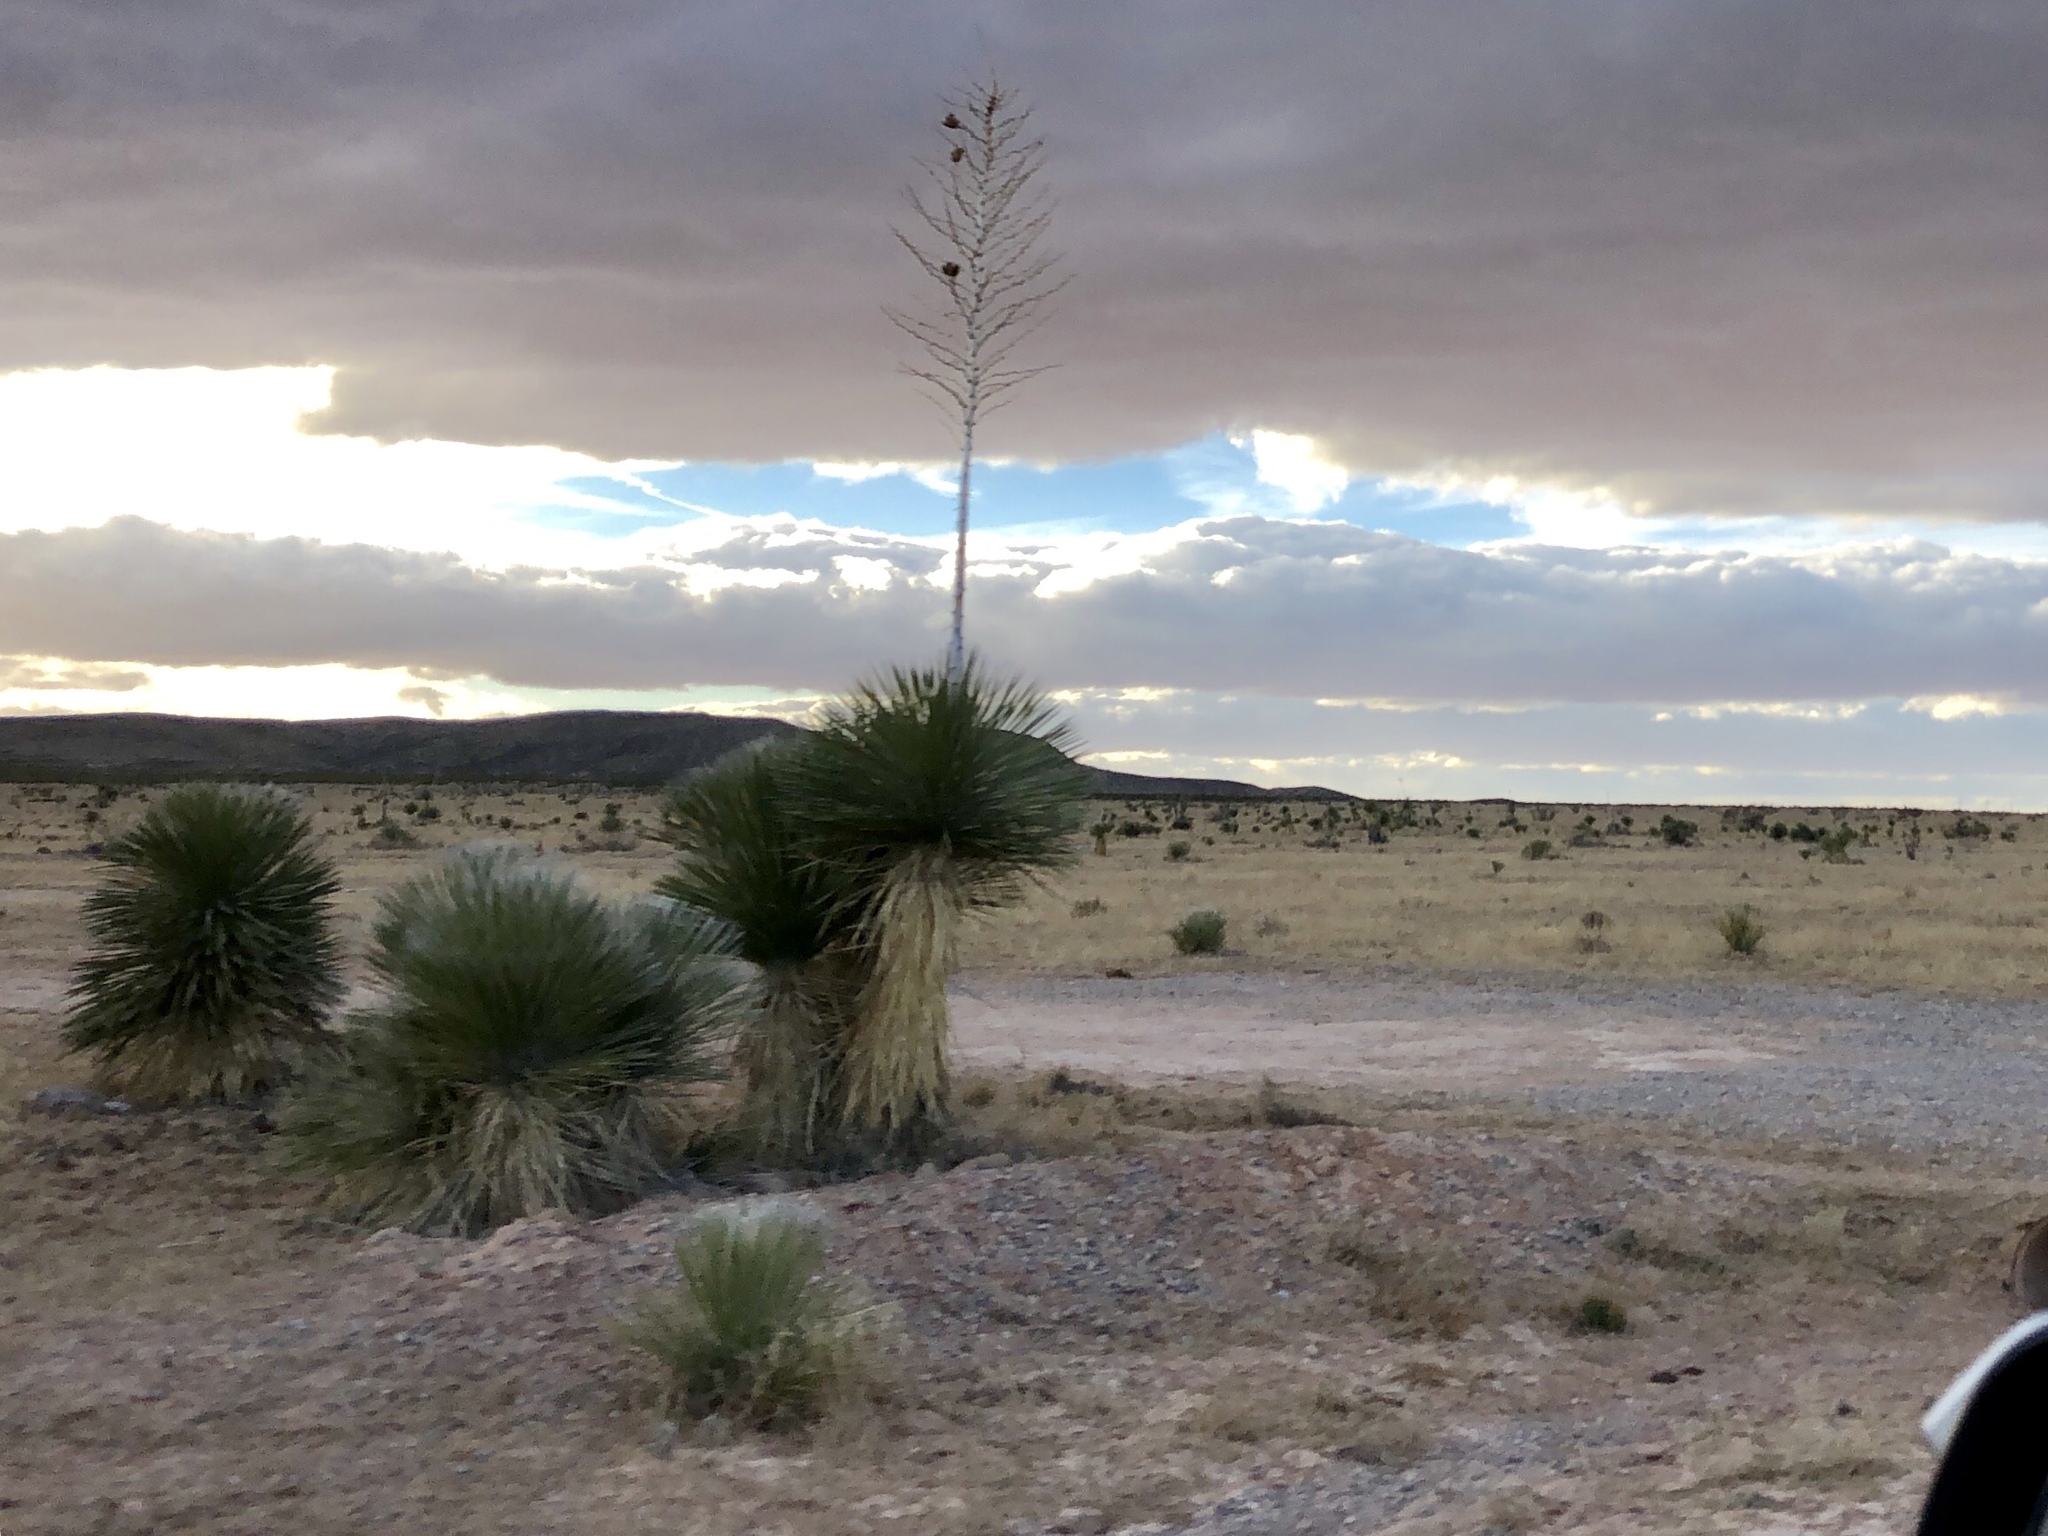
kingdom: Plantae
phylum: Tracheophyta
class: Liliopsida
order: Asparagales
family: Asparagaceae
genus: Yucca
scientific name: Yucca elata
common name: Palmella
